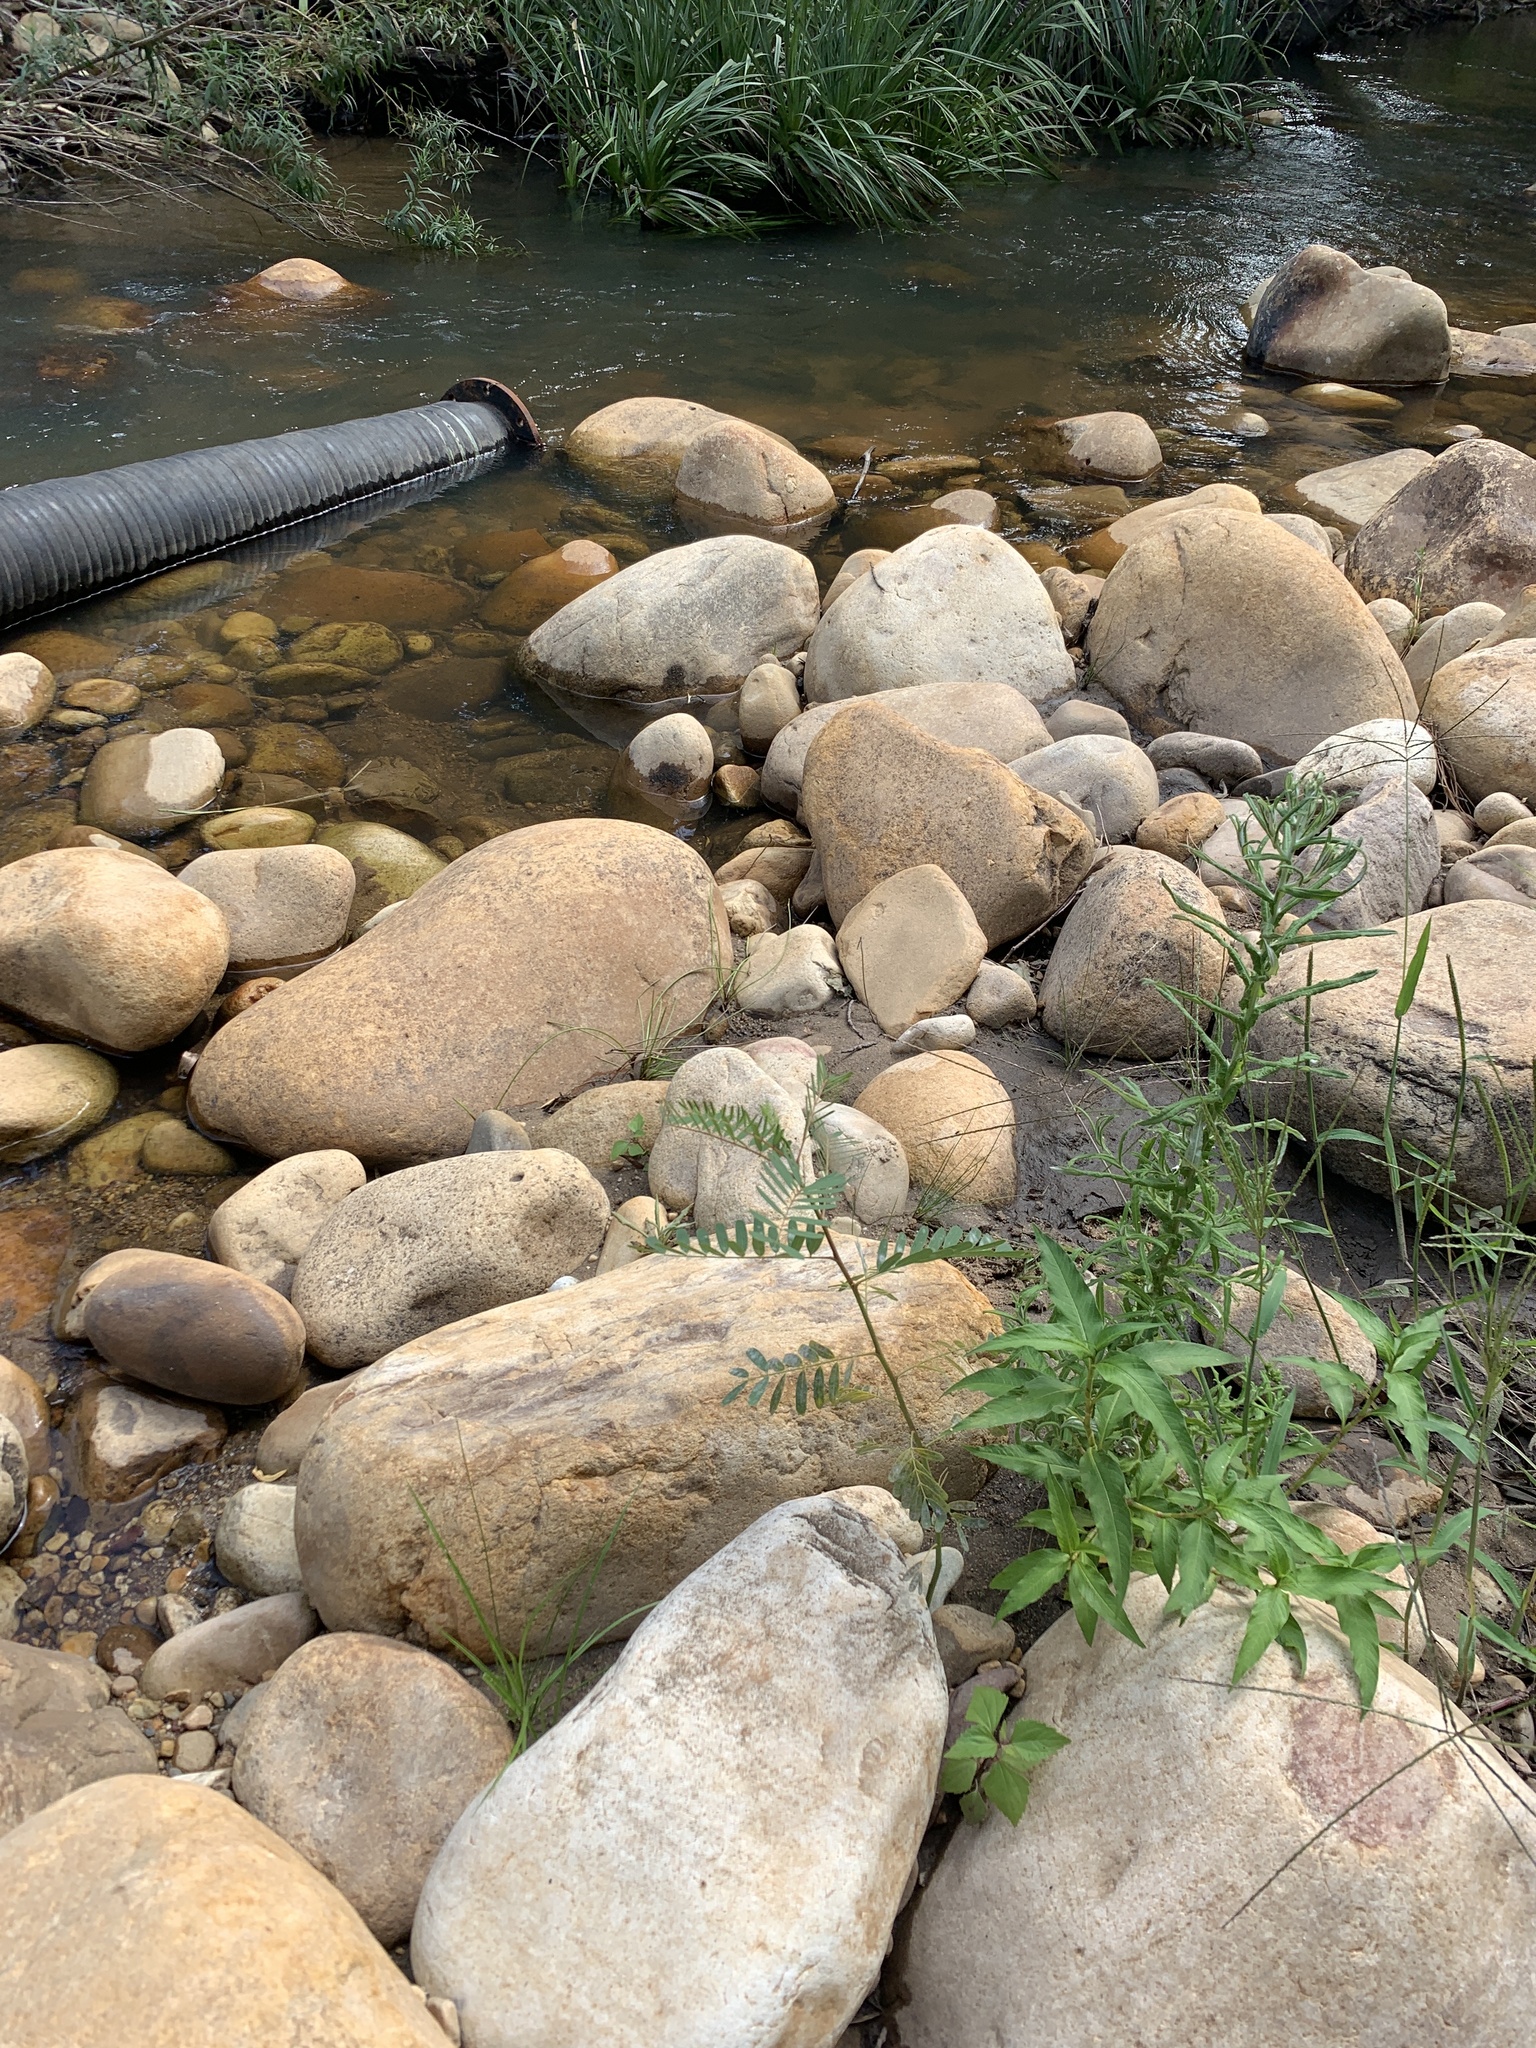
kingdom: Plantae
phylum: Tracheophyta
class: Magnoliopsida
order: Fabales
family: Fabaceae
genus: Sesbania
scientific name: Sesbania punicea
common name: Rattlebox
